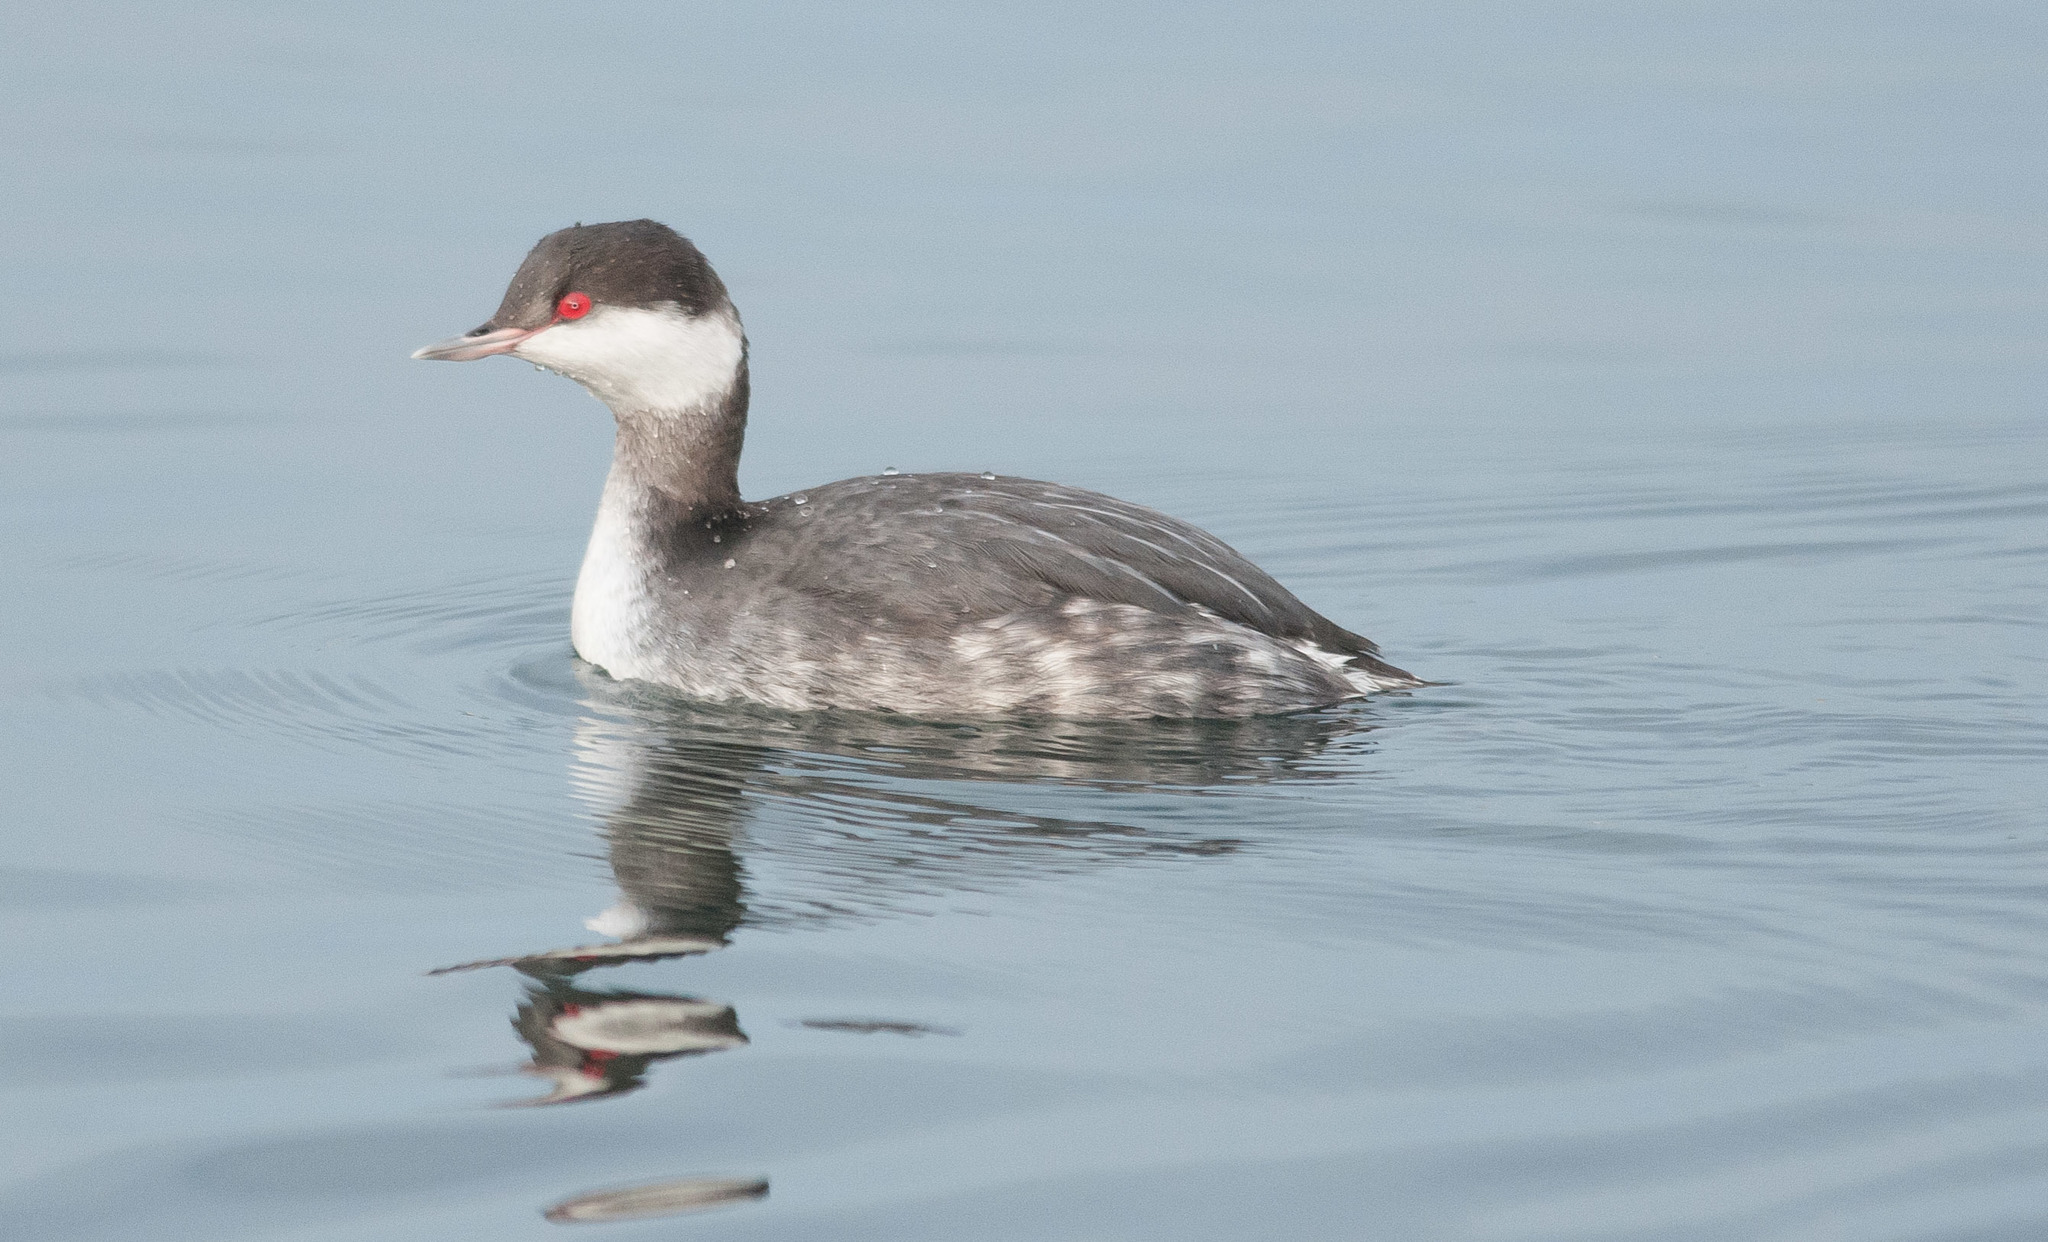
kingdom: Animalia
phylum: Chordata
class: Aves
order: Podicipediformes
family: Podicipedidae
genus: Podiceps
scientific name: Podiceps auritus
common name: Horned grebe
